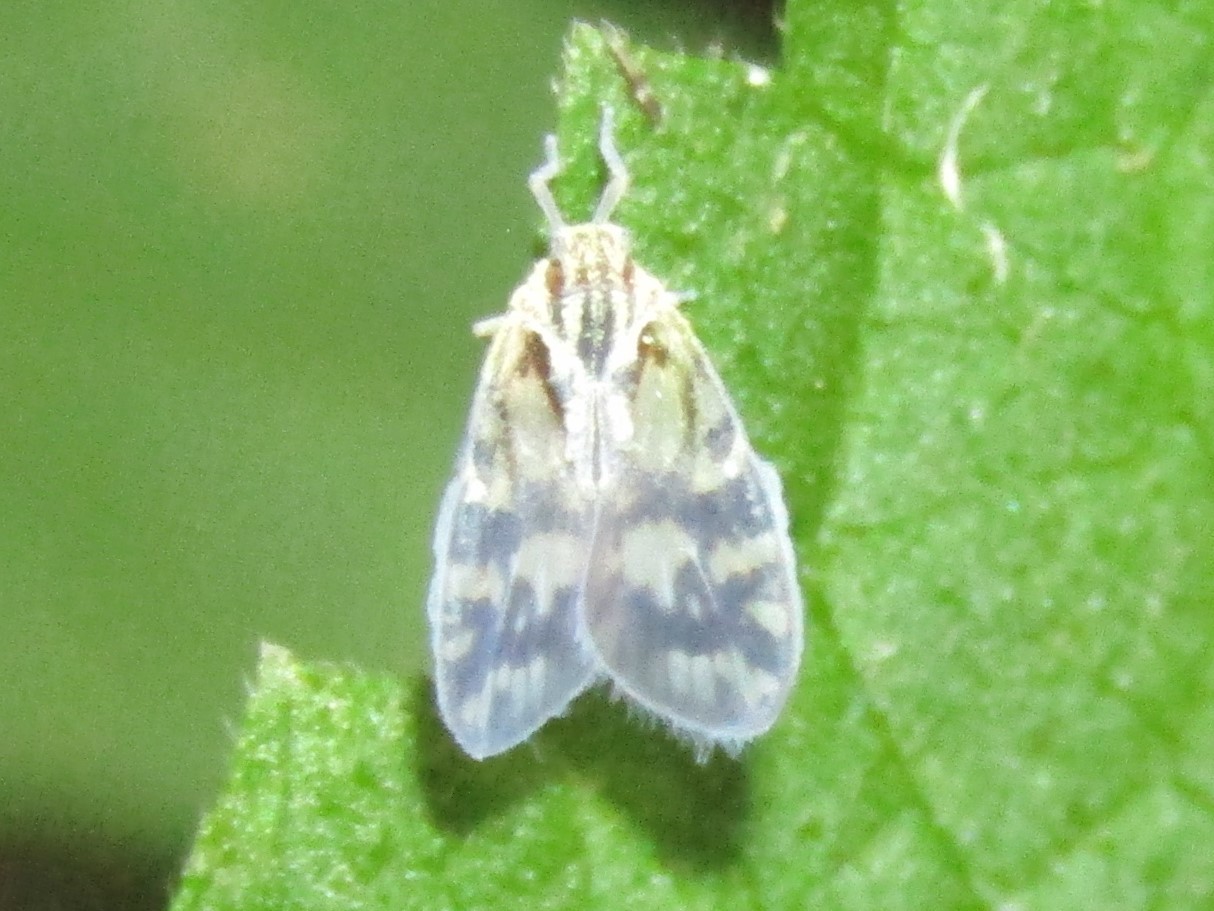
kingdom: Animalia
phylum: Arthropoda
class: Insecta
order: Hemiptera
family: Cixiidae
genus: Bothriocera
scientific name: Bothriocera cognita
